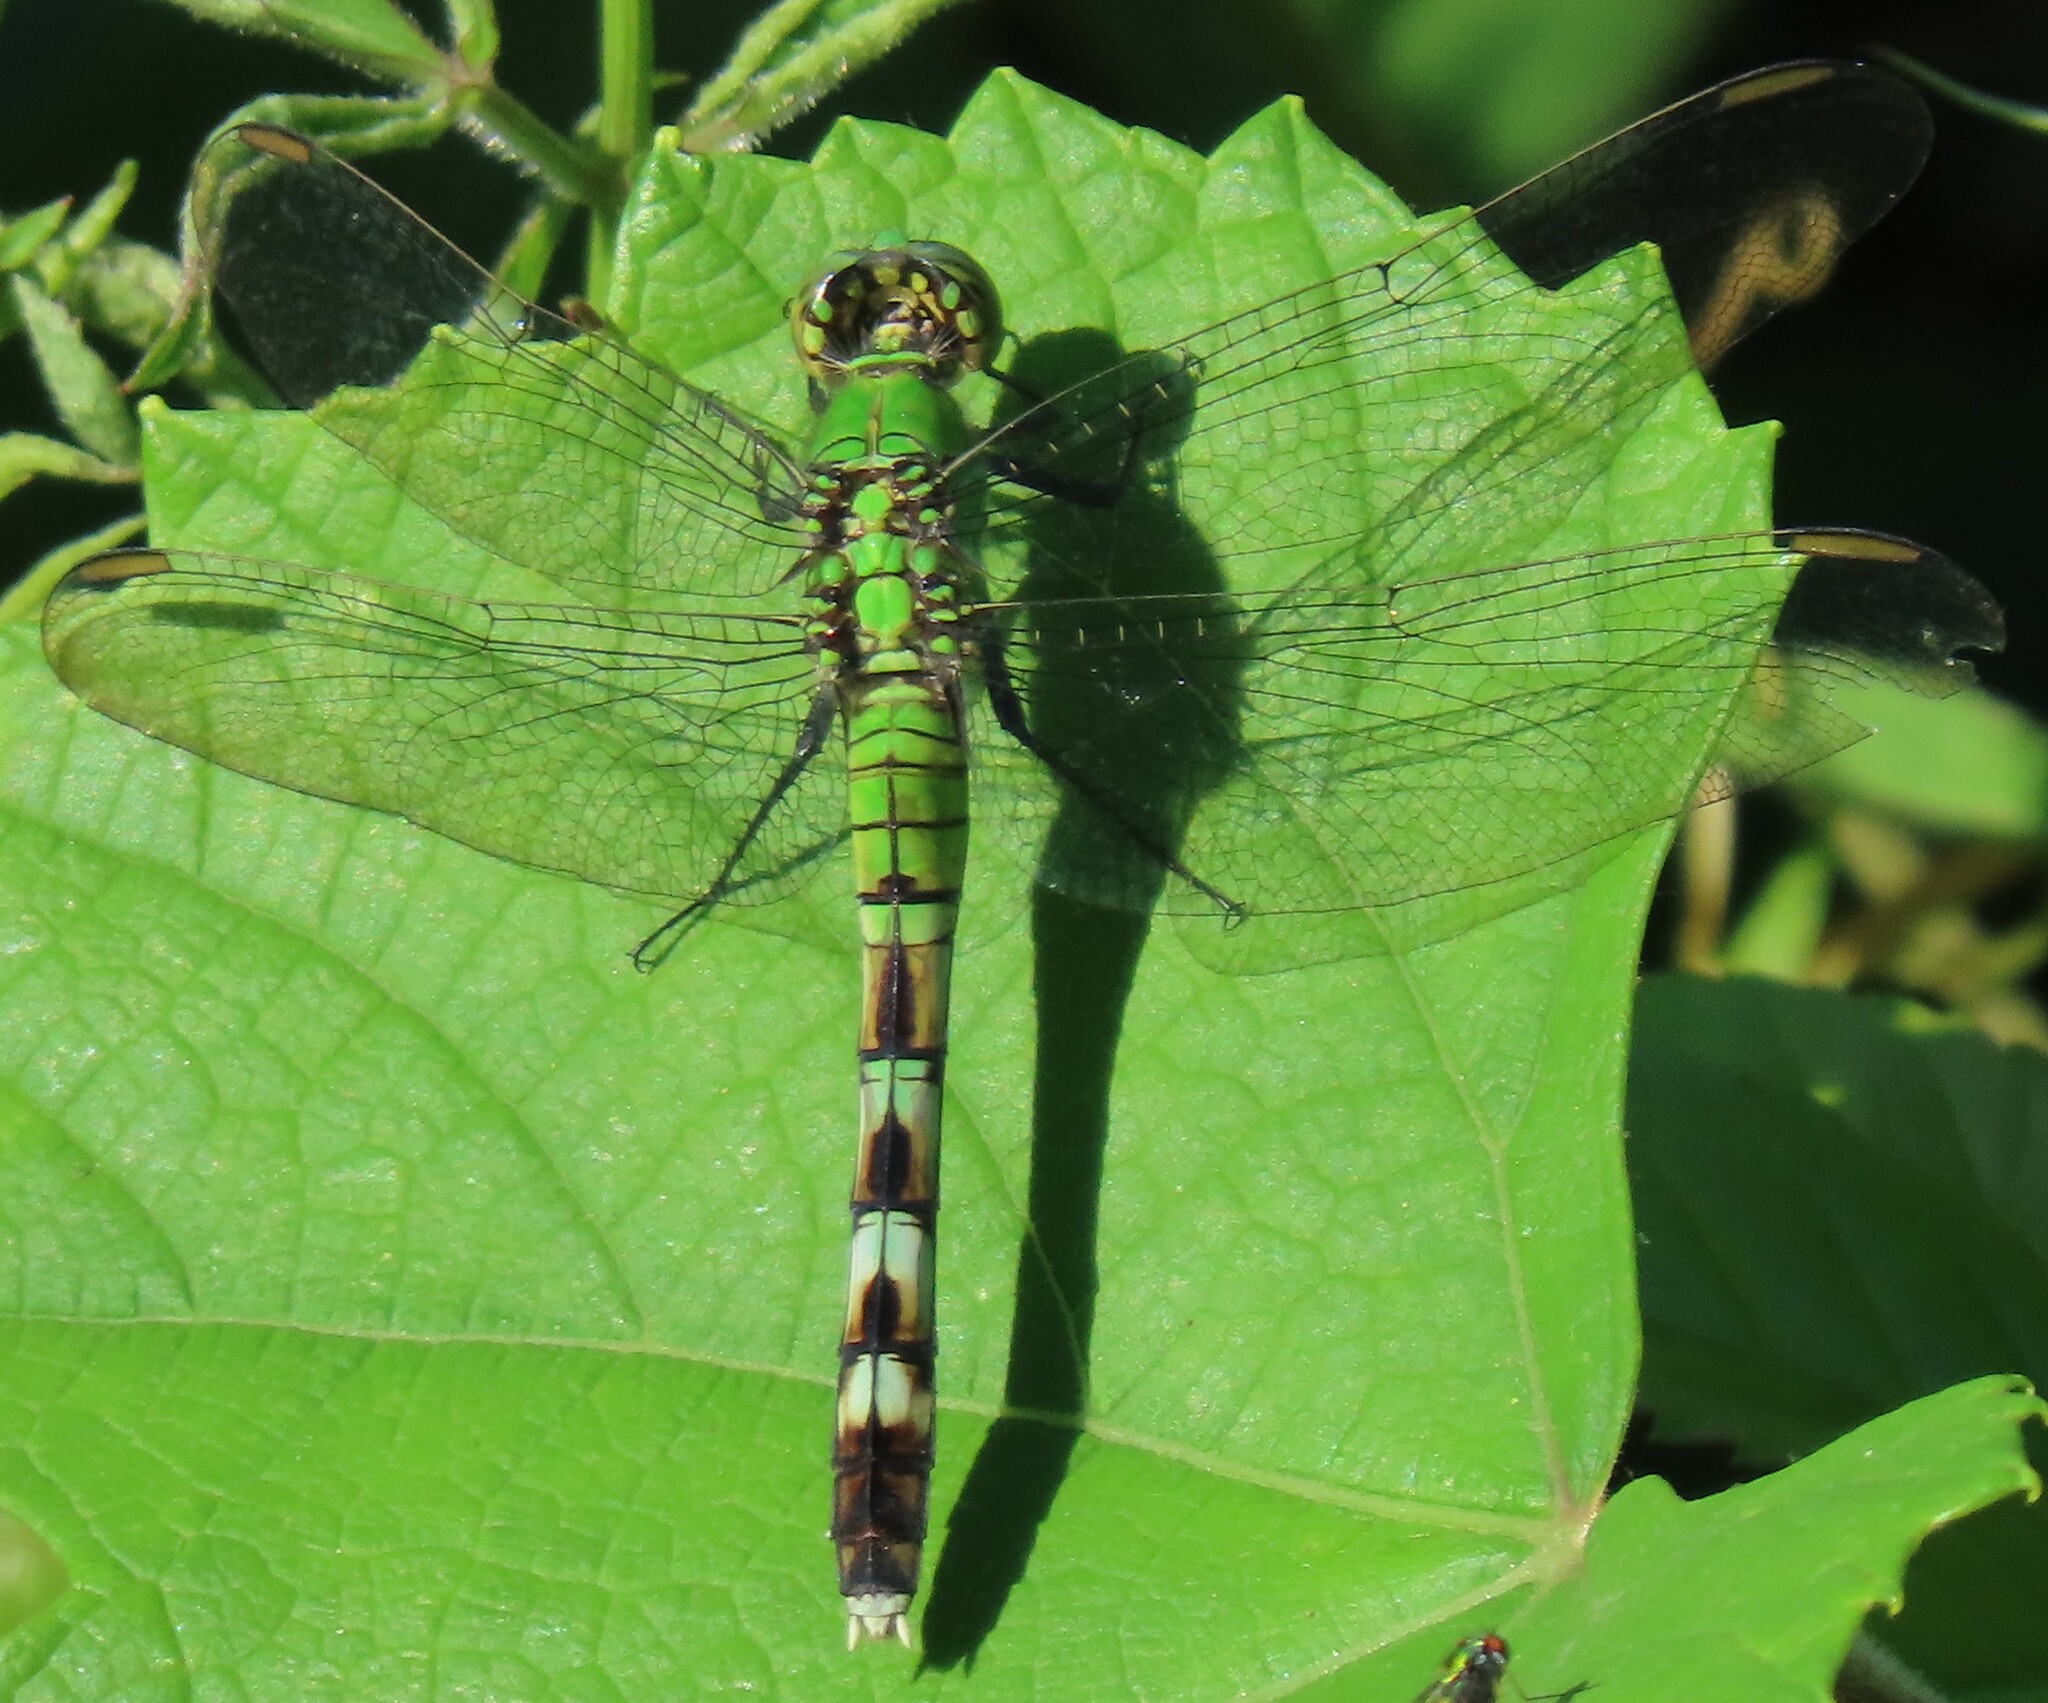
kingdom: Animalia
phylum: Arthropoda
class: Insecta
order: Odonata
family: Libellulidae
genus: Erythemis
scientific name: Erythemis simplicicollis
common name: Eastern pondhawk
